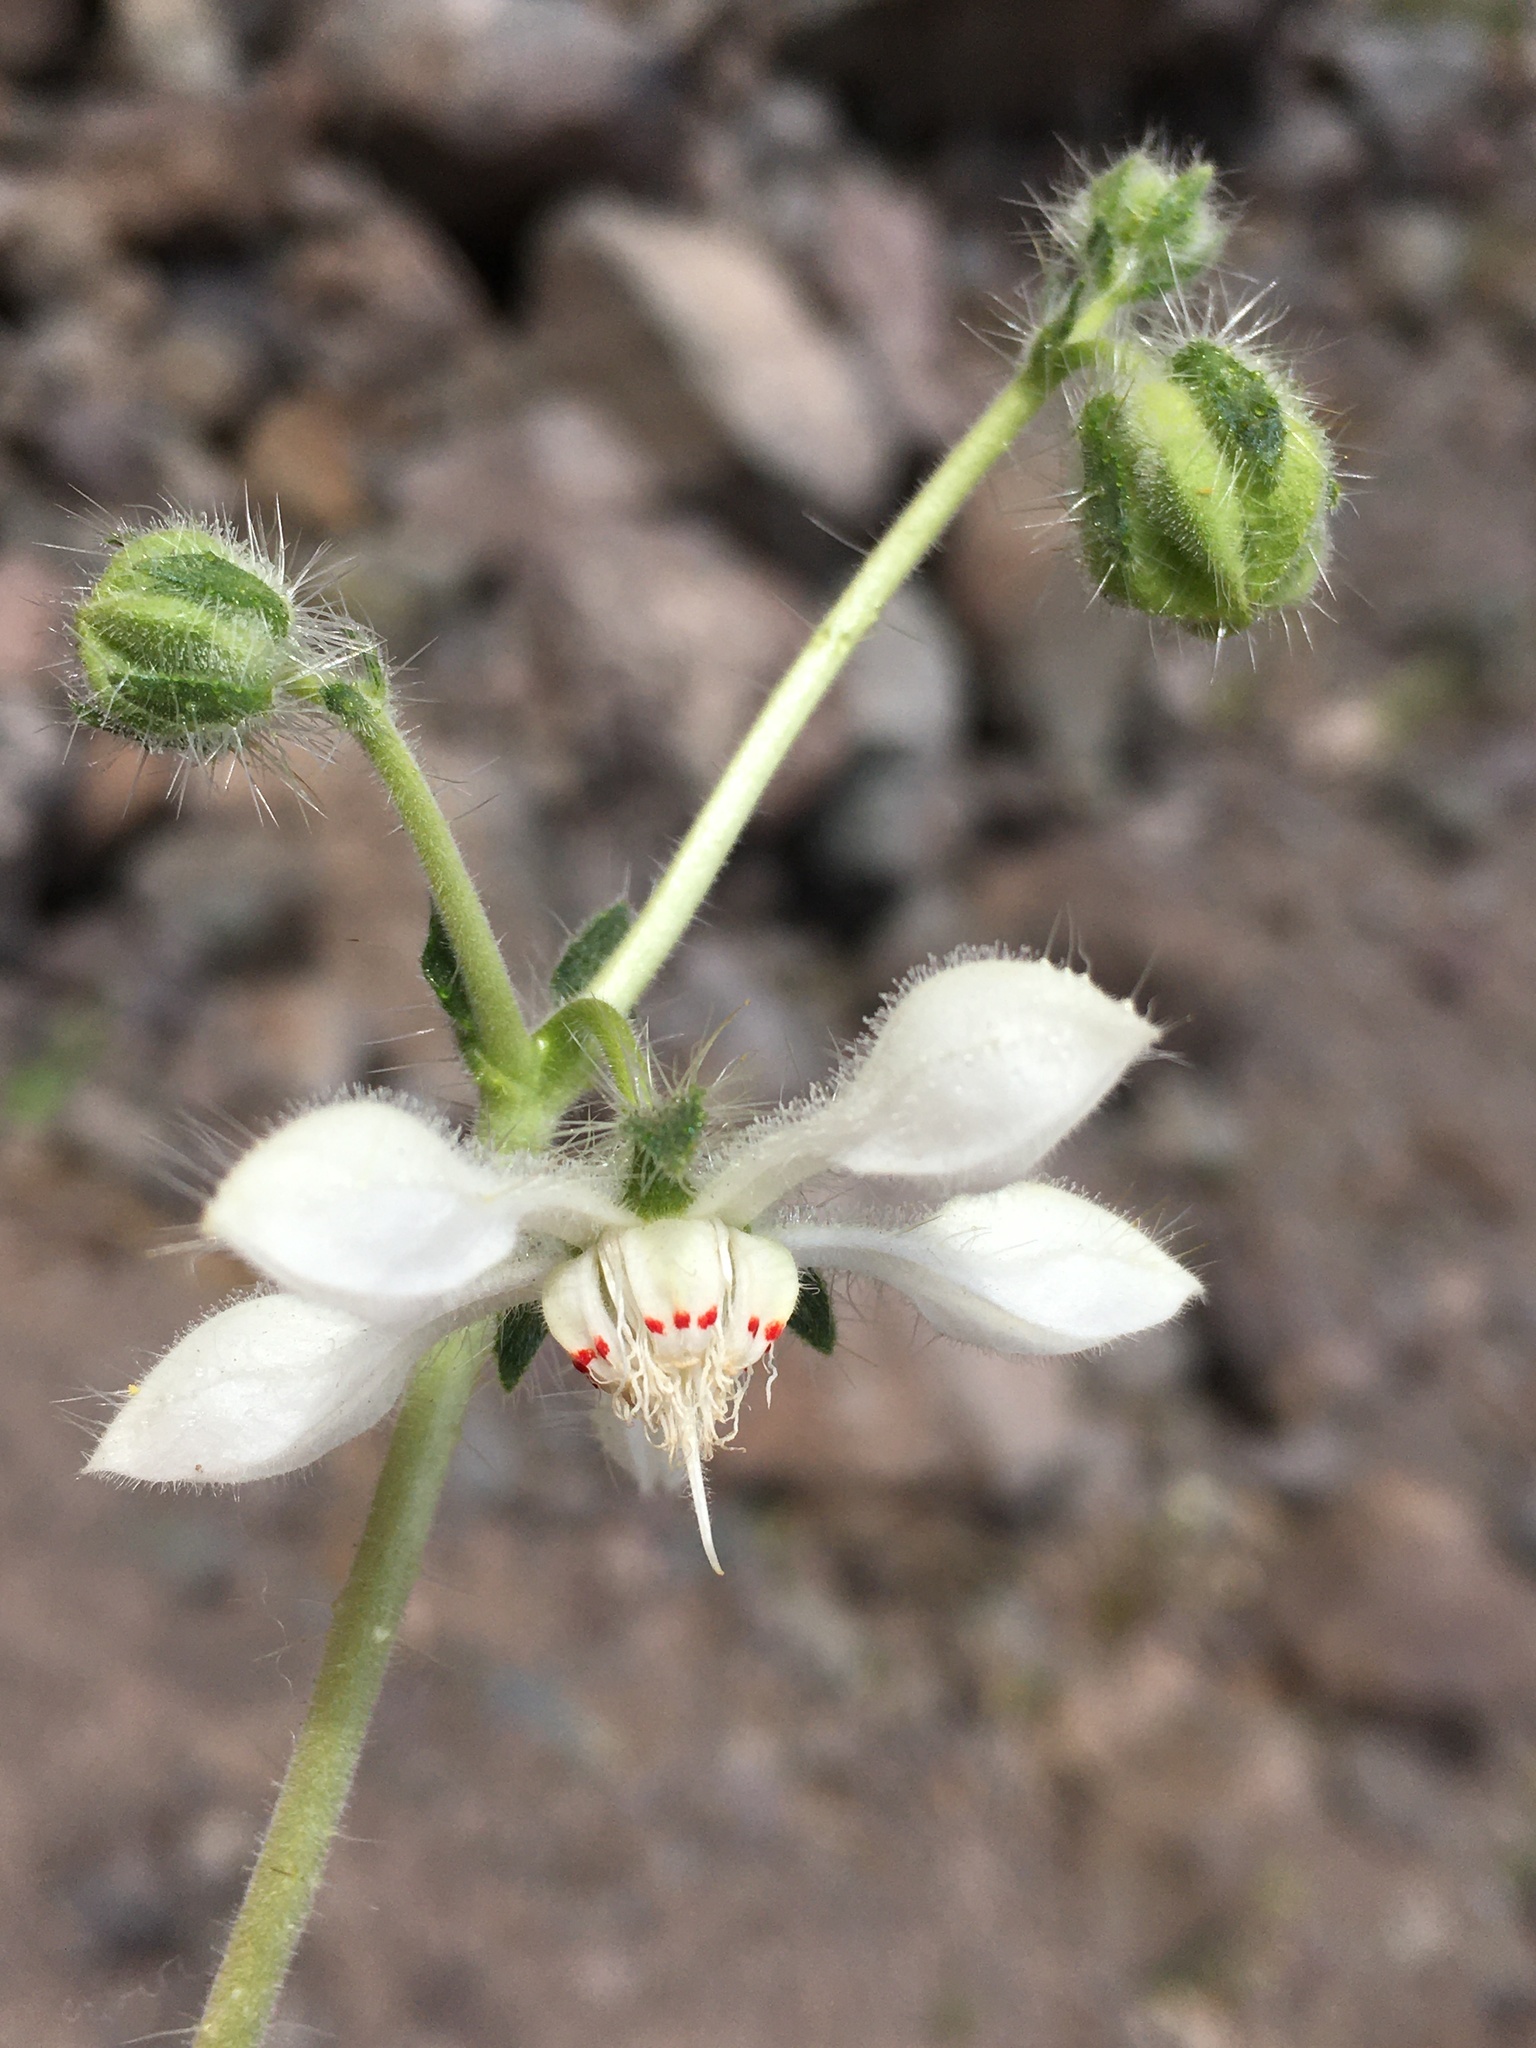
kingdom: Plantae
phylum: Tracheophyta
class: Magnoliopsida
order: Cornales
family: Loasaceae
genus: Loasa
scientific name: Loasa pallida
